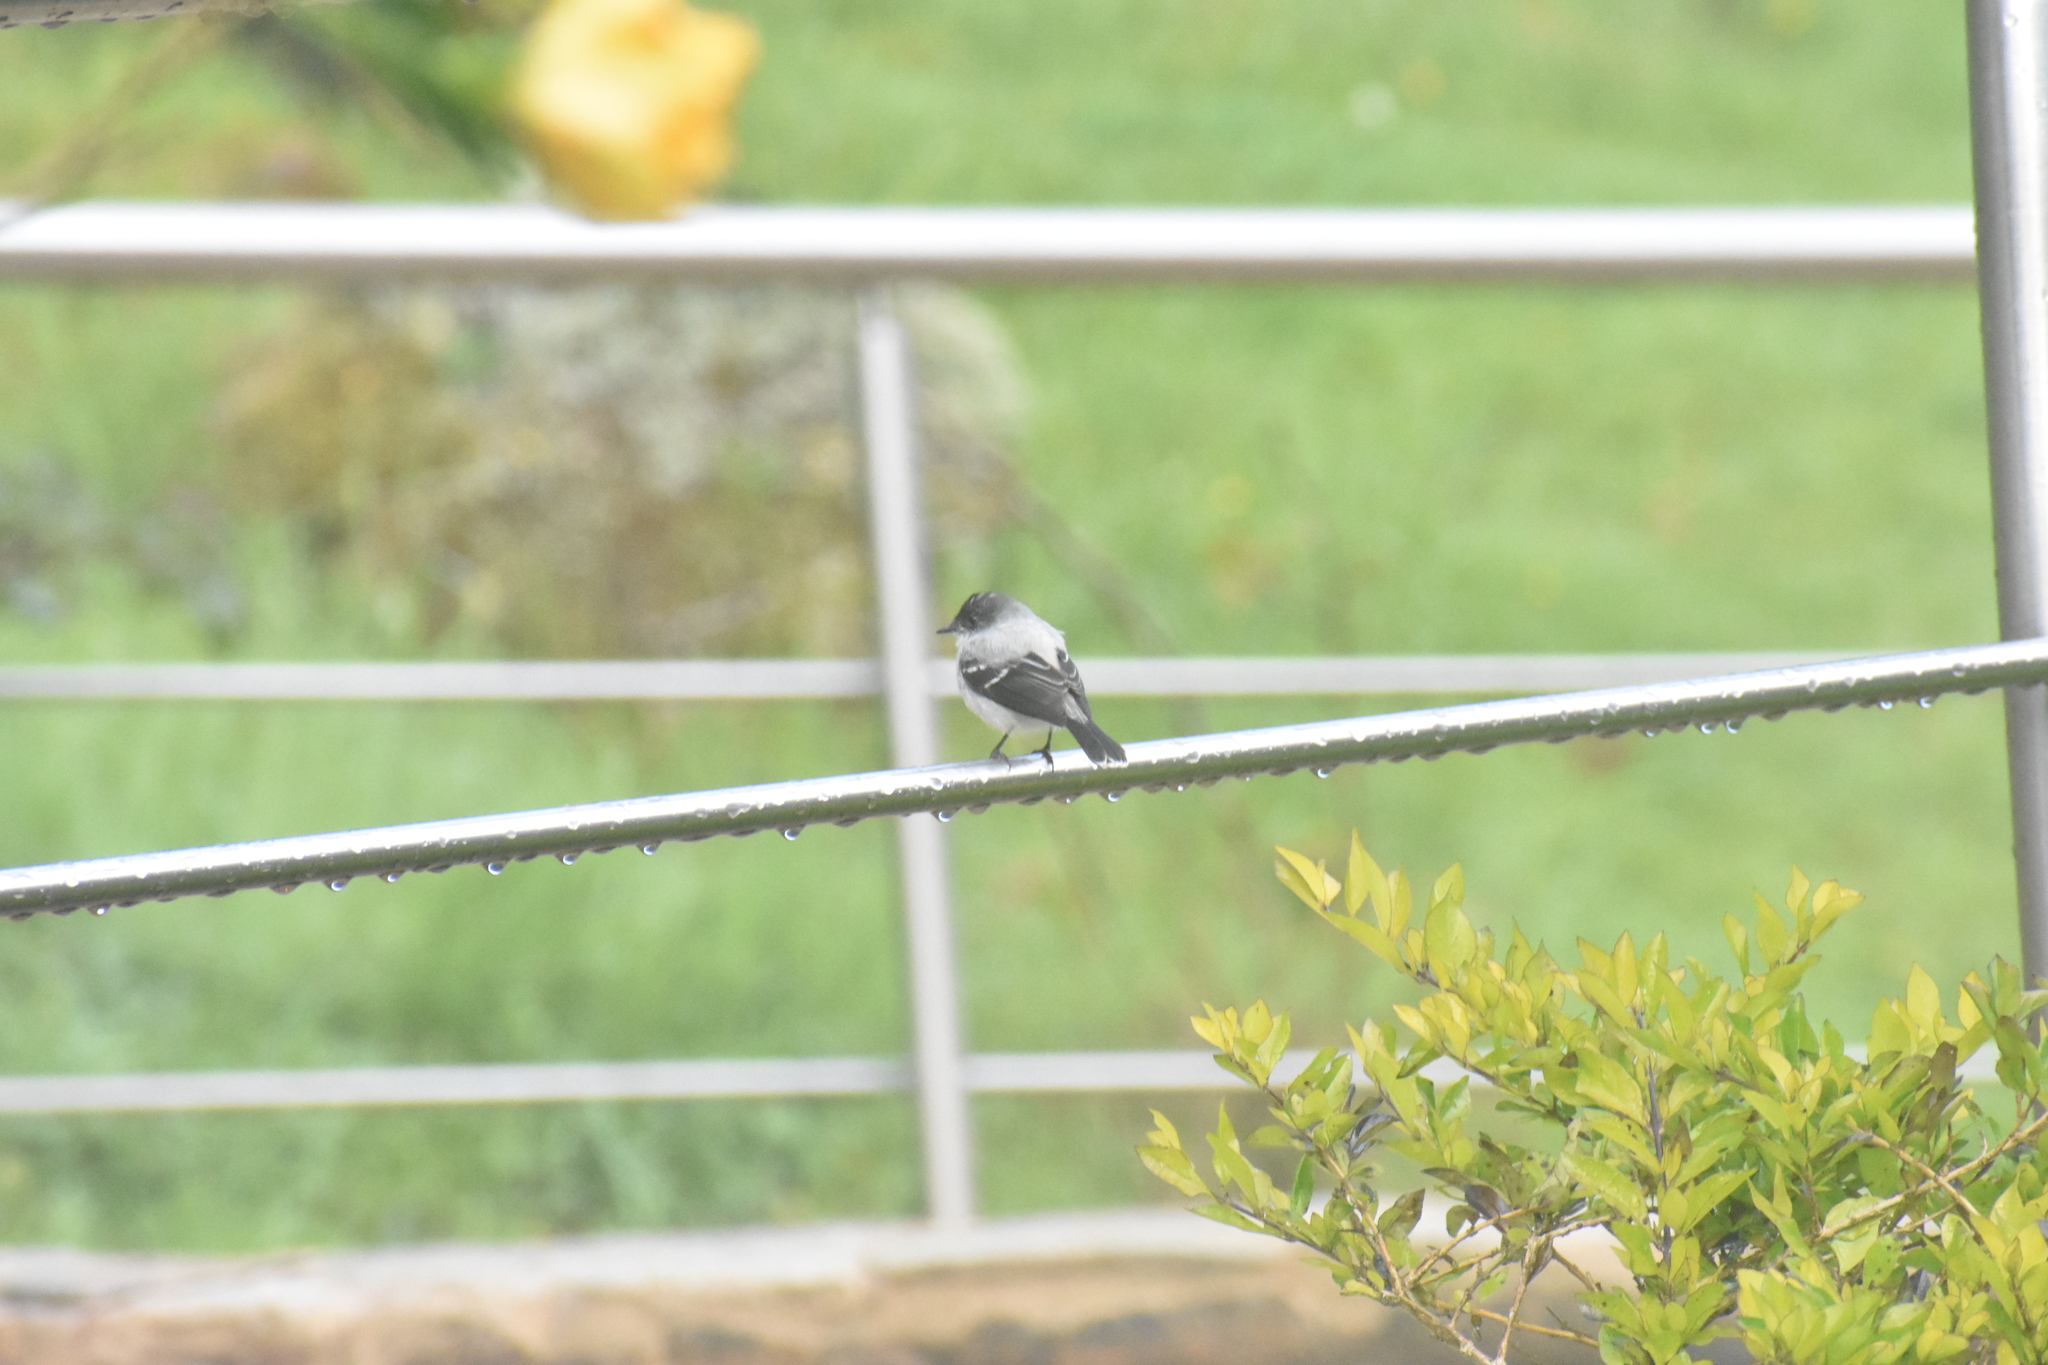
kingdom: Animalia
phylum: Chordata
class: Aves
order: Passeriformes
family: Tyrannidae
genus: Serpophaga
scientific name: Serpophaga cinerea
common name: Torrent tyrannulet
